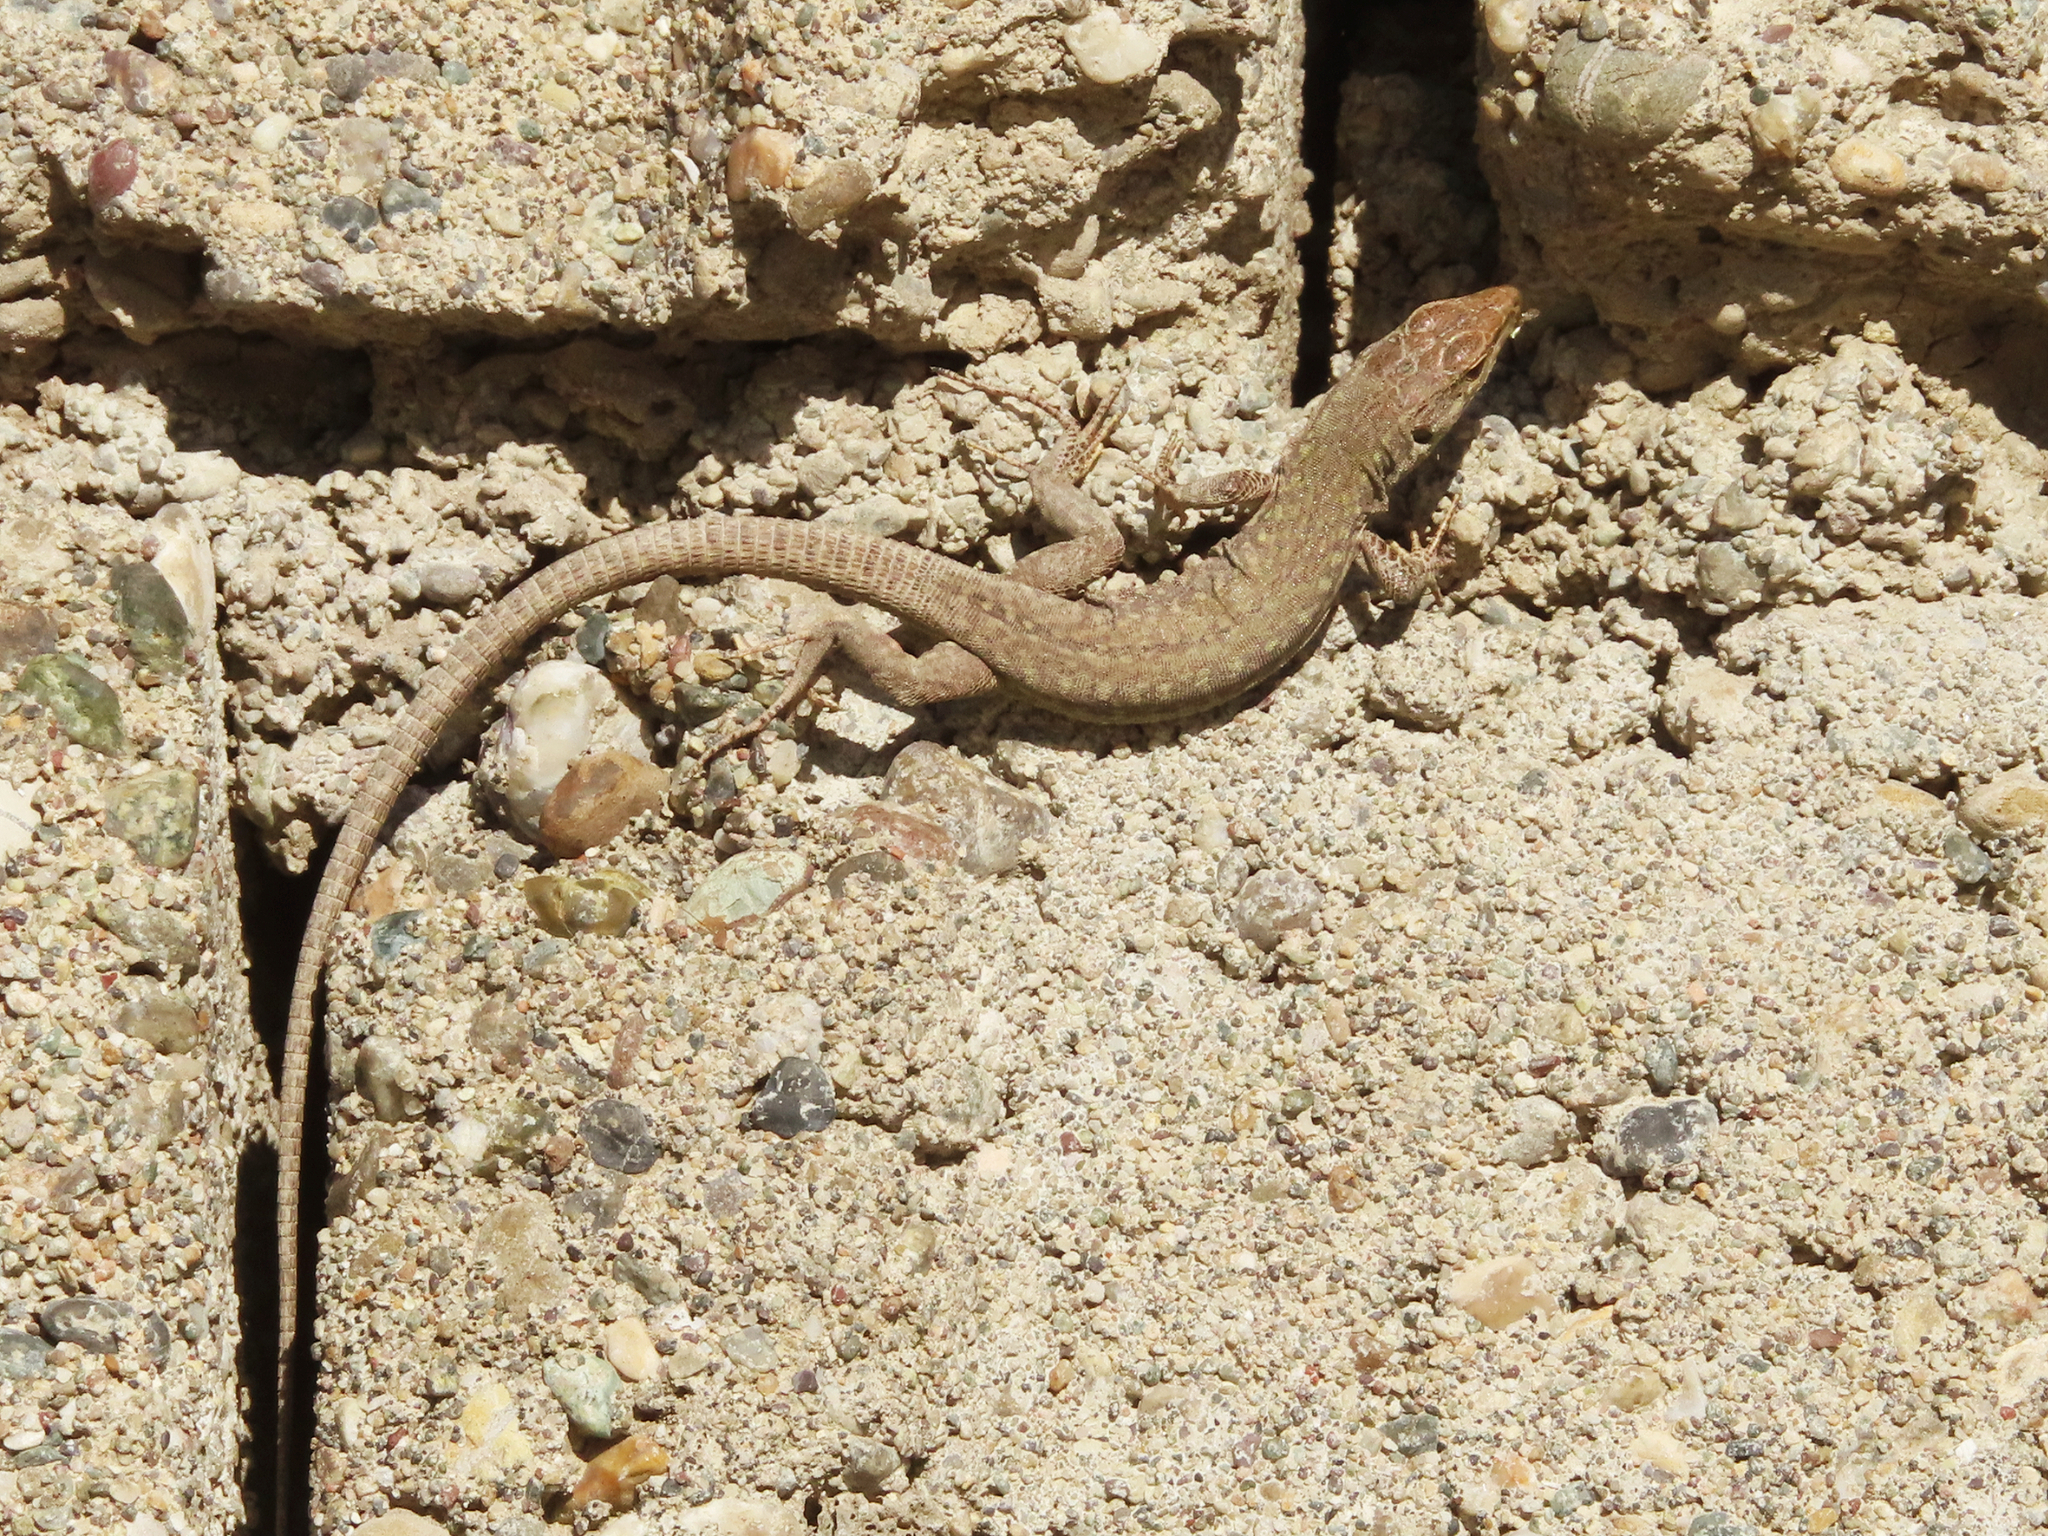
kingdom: Animalia
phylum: Chordata
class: Squamata
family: Lacertidae
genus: Podarcis
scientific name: Podarcis siculus
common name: Italian wall lizard
